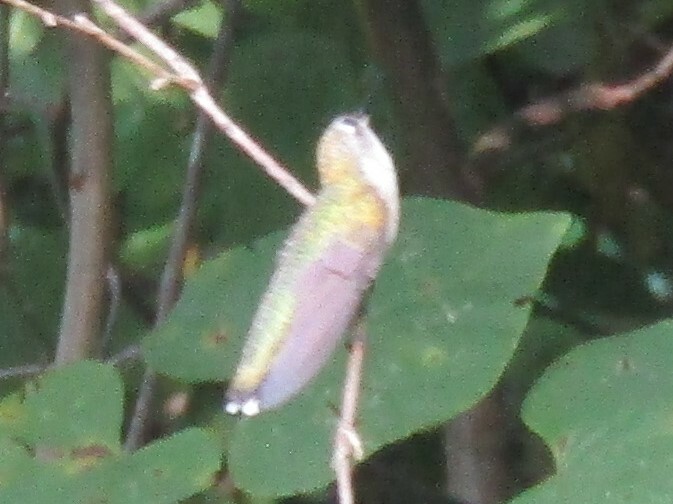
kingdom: Animalia
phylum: Chordata
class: Aves
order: Apodiformes
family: Trochilidae
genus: Archilochus
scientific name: Archilochus colubris
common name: Ruby-throated hummingbird
